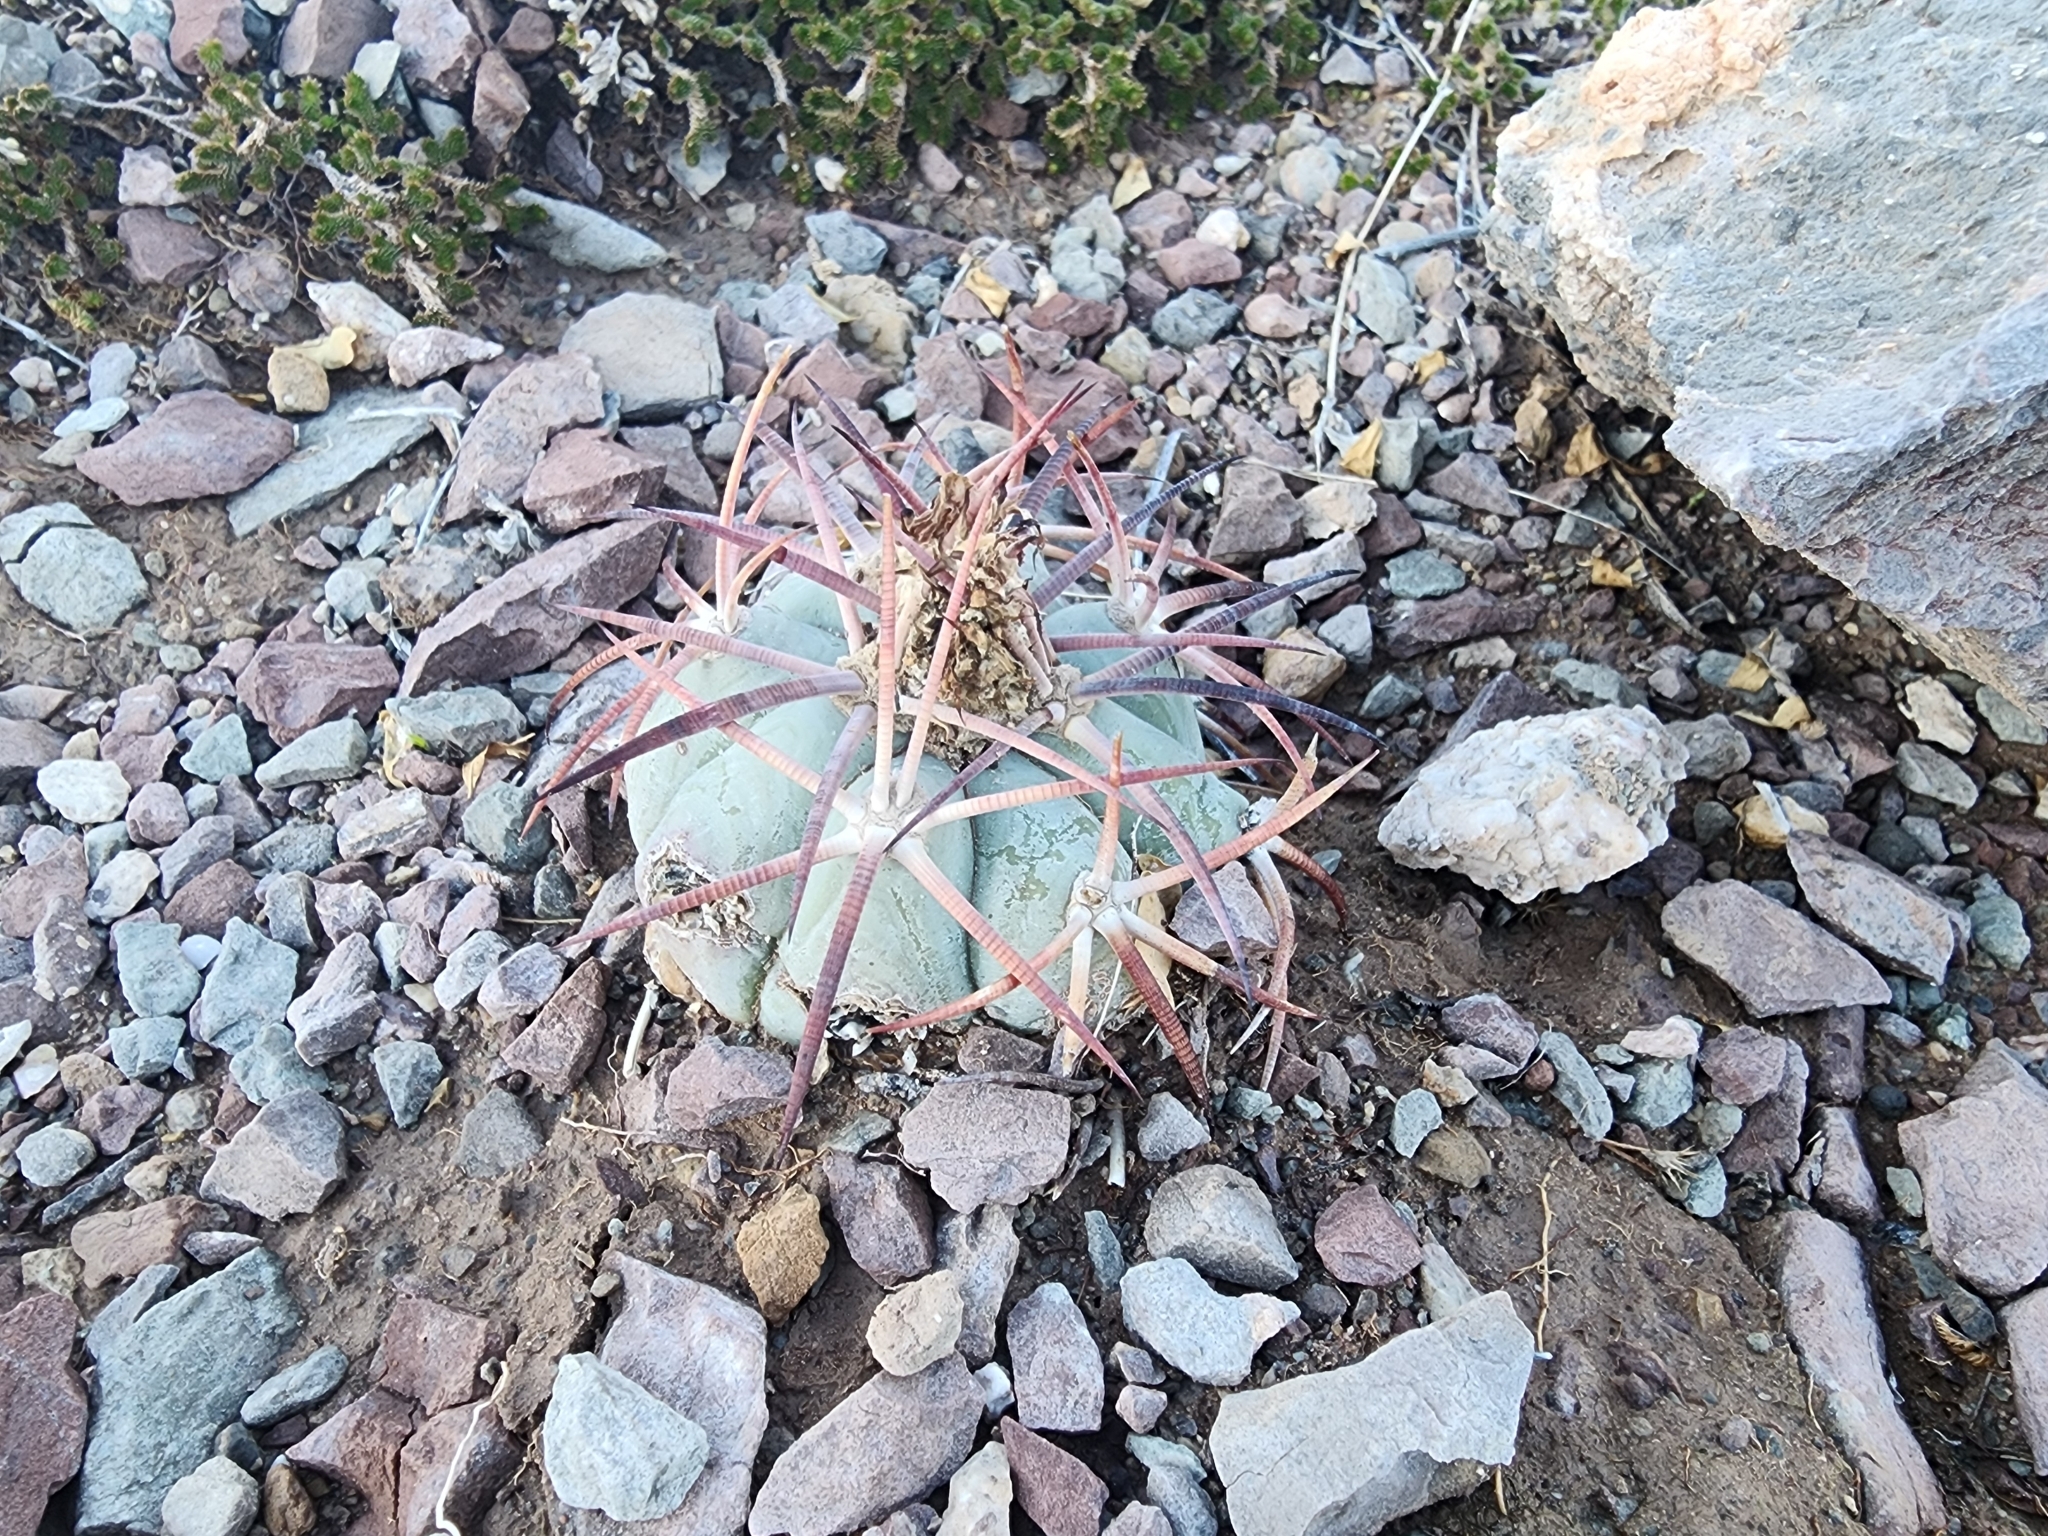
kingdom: Plantae
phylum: Tracheophyta
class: Magnoliopsida
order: Caryophyllales
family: Cactaceae
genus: Echinocactus
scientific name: Echinocactus horizonthalonius
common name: Devilshead
